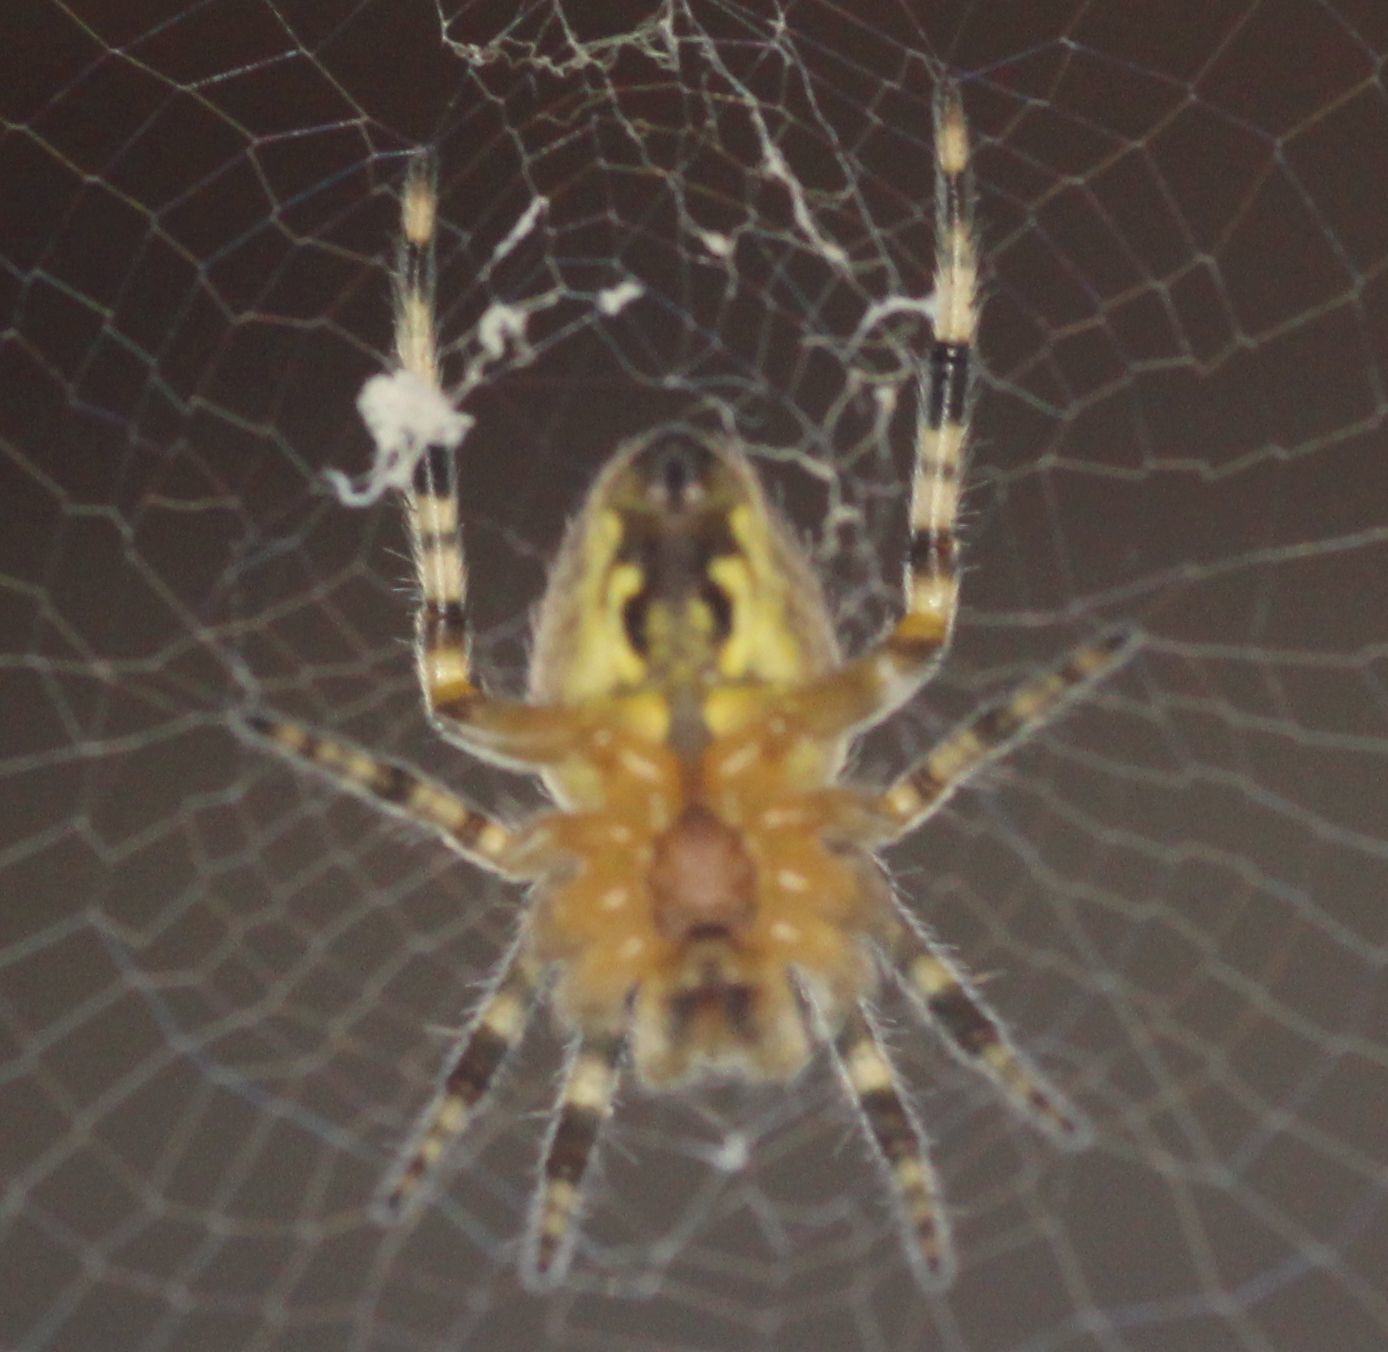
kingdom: Animalia
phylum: Arthropoda
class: Arachnida
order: Araneae
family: Araneidae
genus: Araneus
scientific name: Araneus diadematus
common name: Cross orbweaver
